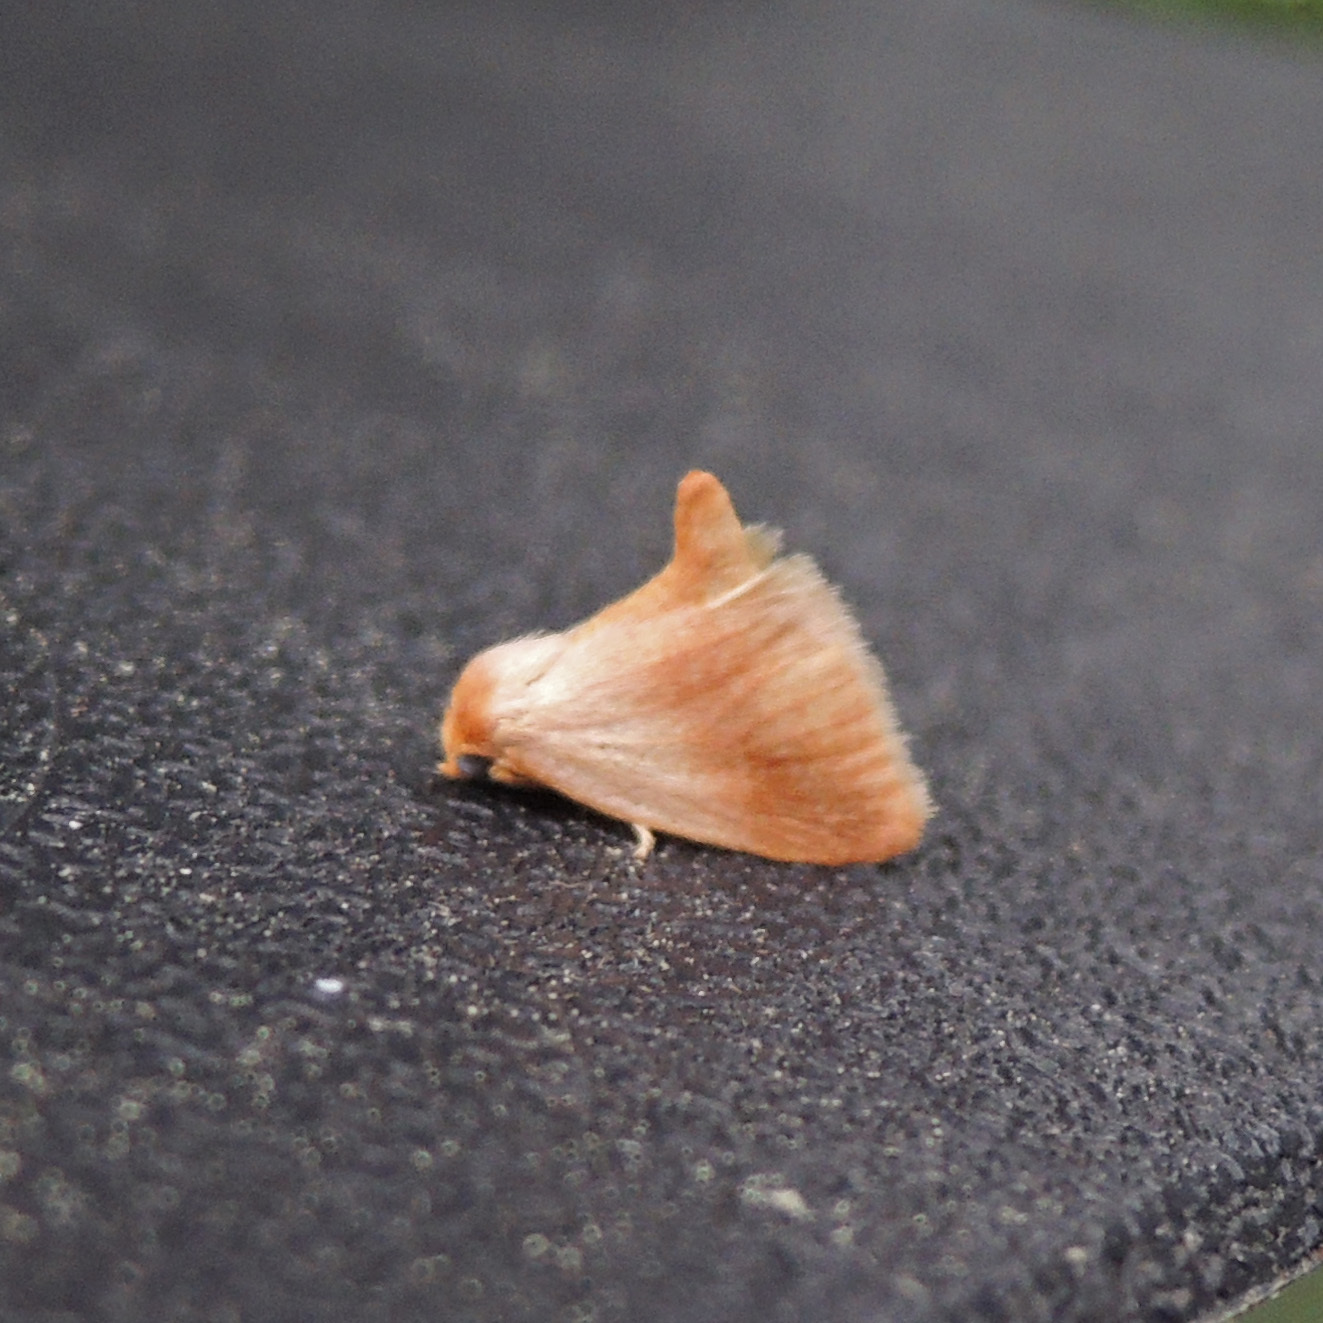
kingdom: Animalia
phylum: Arthropoda
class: Insecta
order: Lepidoptera
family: Limacodidae
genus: Tortricidia
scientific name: Tortricidia testacea
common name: Early button slug moth
